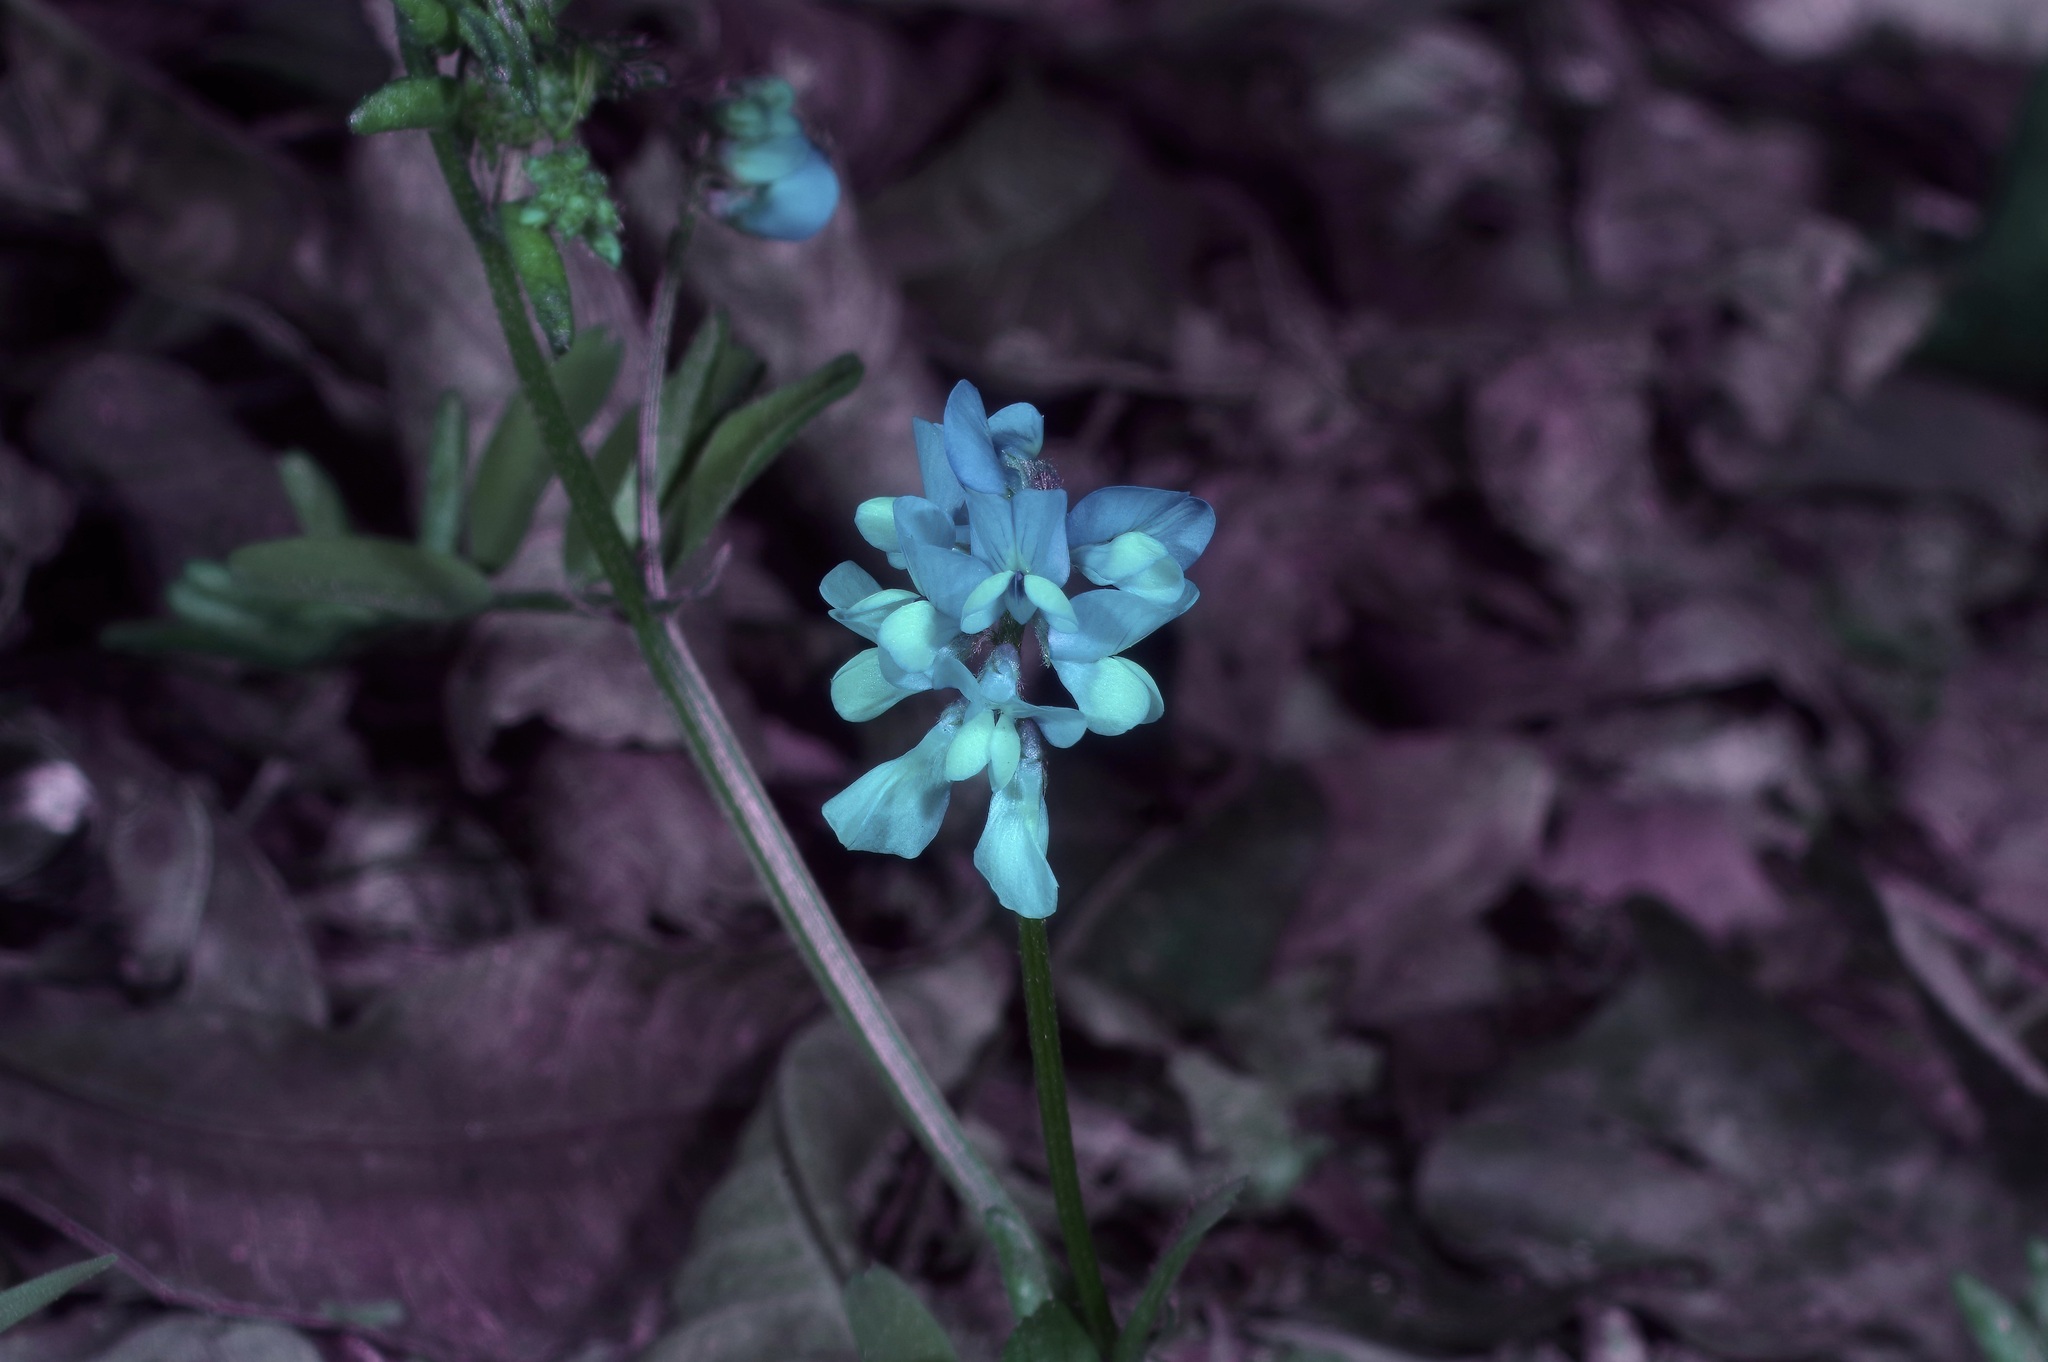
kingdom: Plantae
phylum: Tracheophyta
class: Magnoliopsida
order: Fabales
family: Fabaceae
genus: Vicia
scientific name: Vicia ludoviciana
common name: Louisiana vetch
